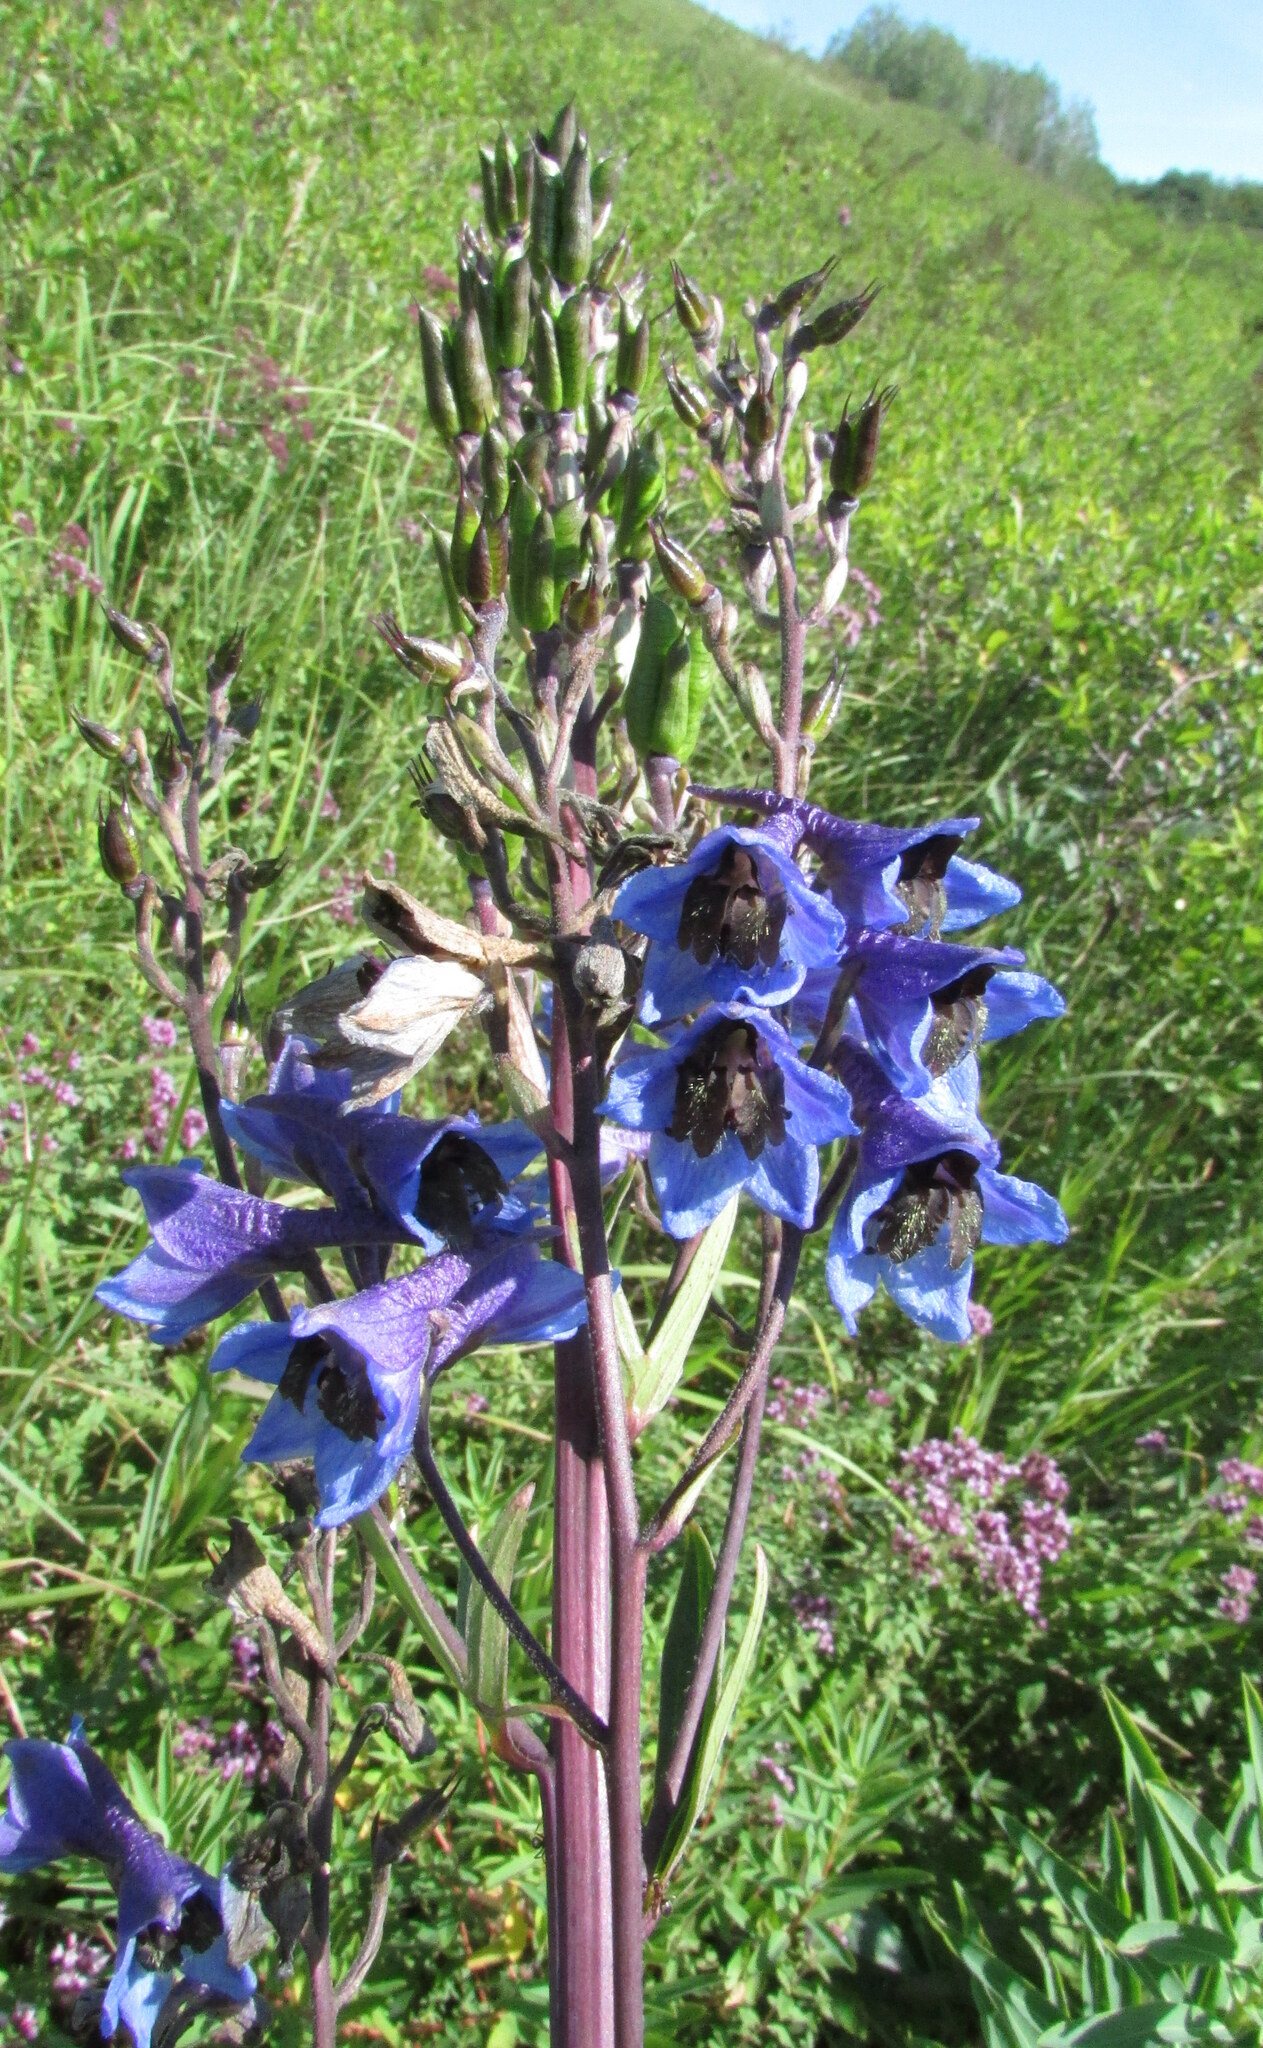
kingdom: Plantae
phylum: Tracheophyta
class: Magnoliopsida
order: Ranunculales
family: Ranunculaceae
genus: Delphinium
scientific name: Delphinium cuneatum
